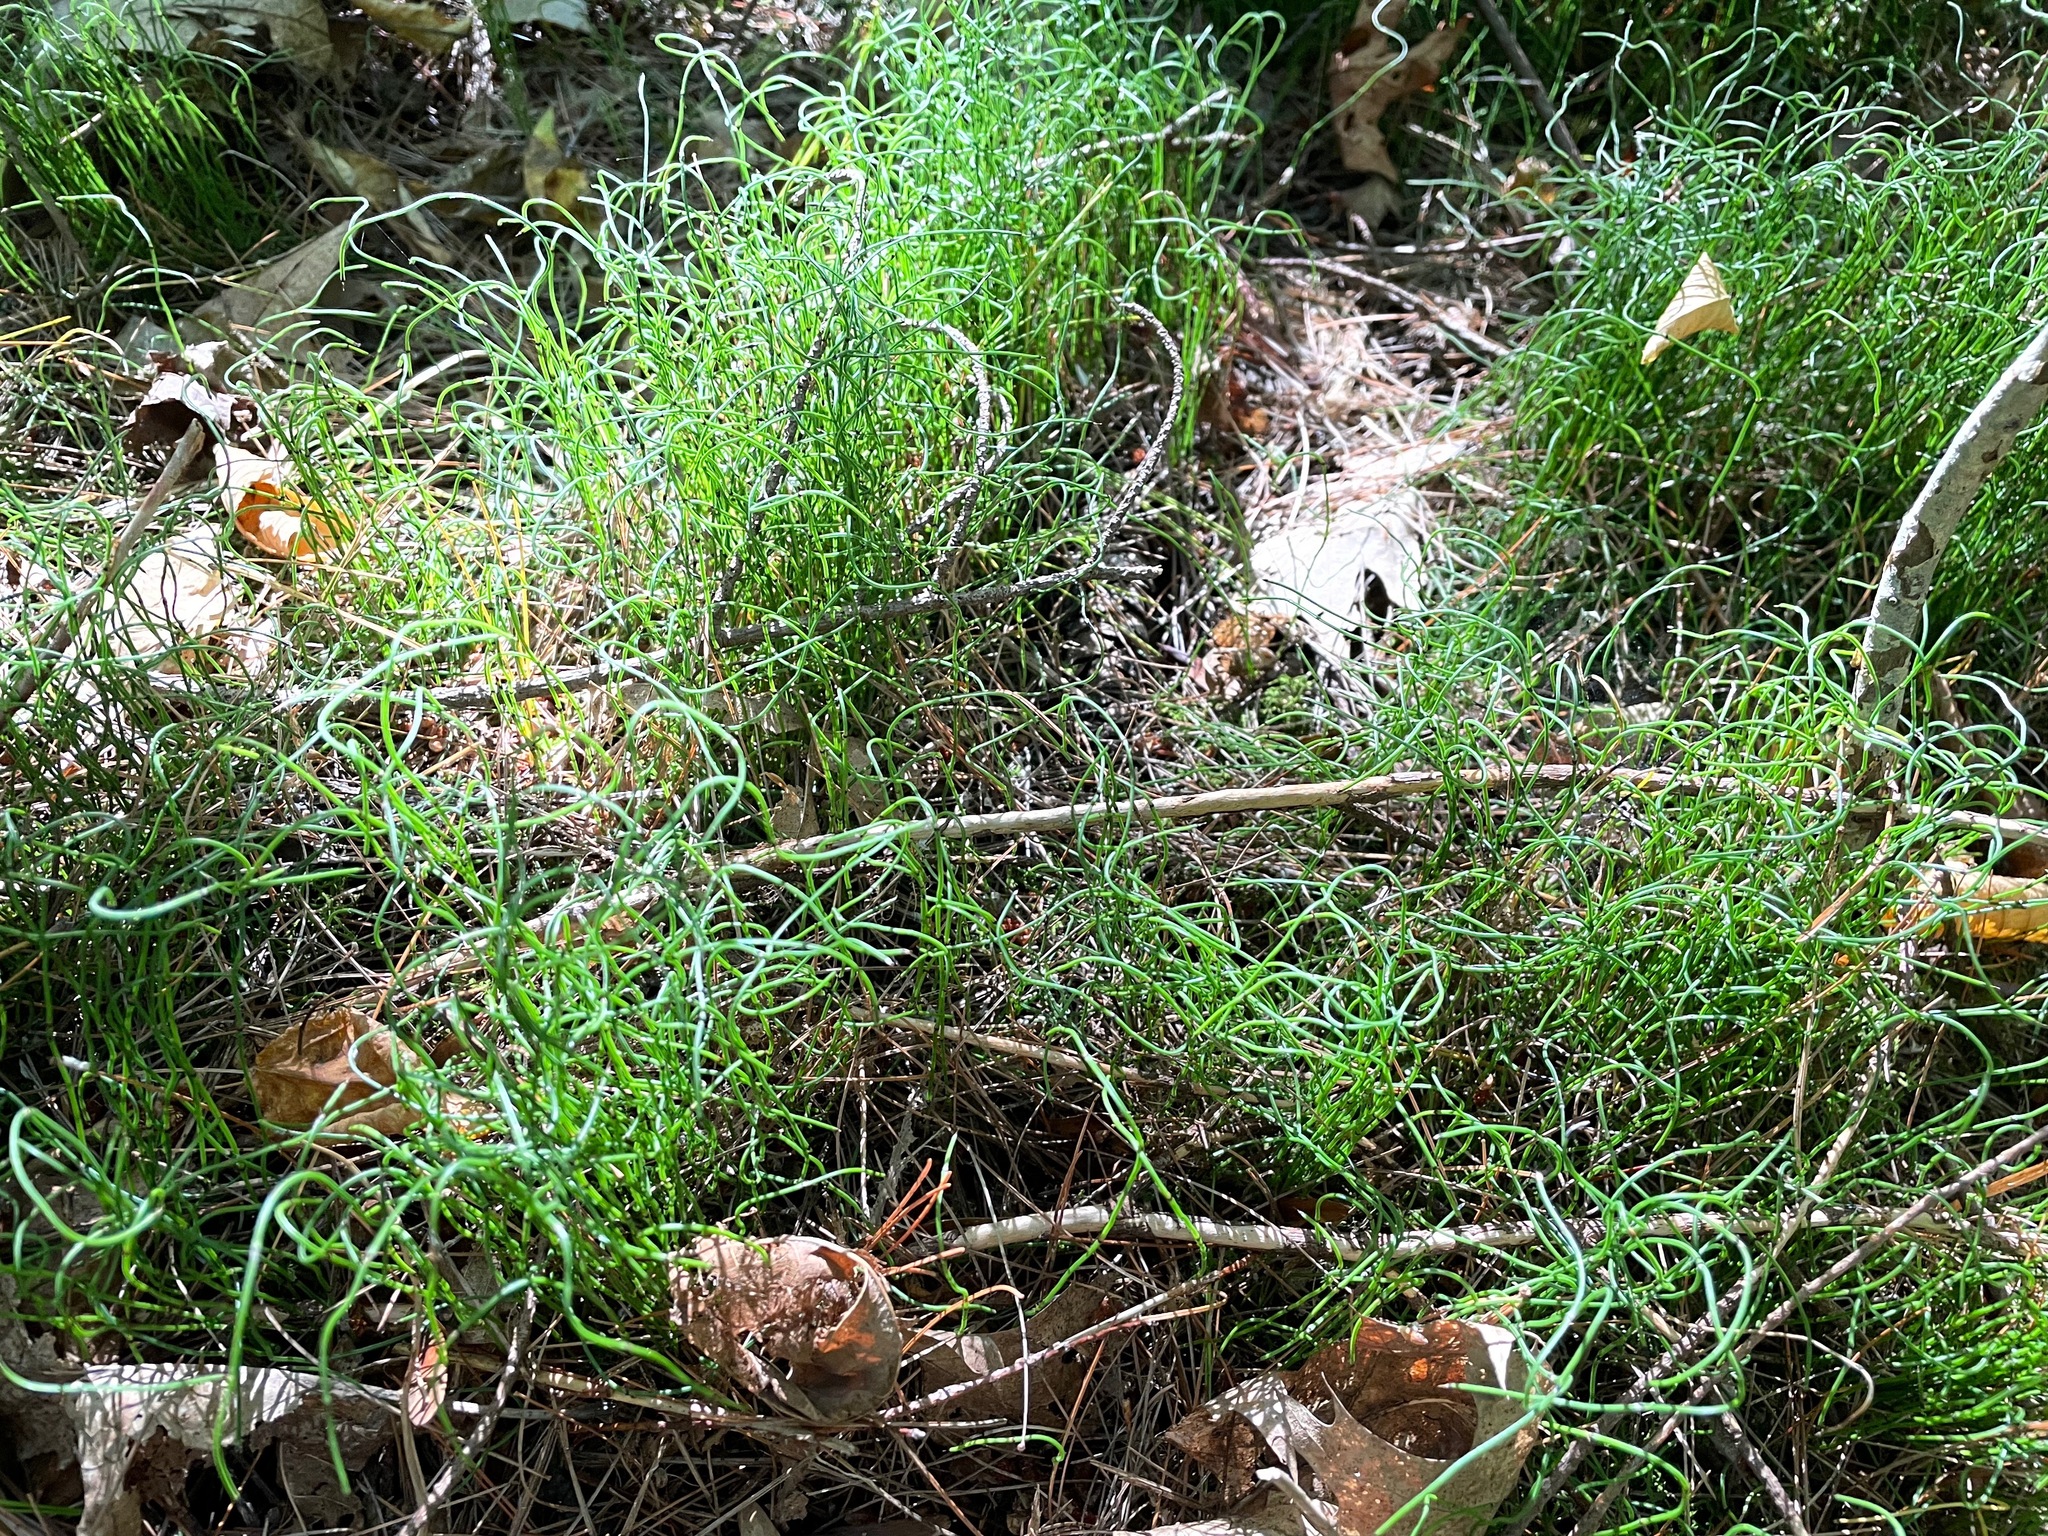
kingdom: Plantae
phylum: Tracheophyta
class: Polypodiopsida
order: Equisetales
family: Equisetaceae
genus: Equisetum
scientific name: Equisetum scirpoides
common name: Delicate horsetail
